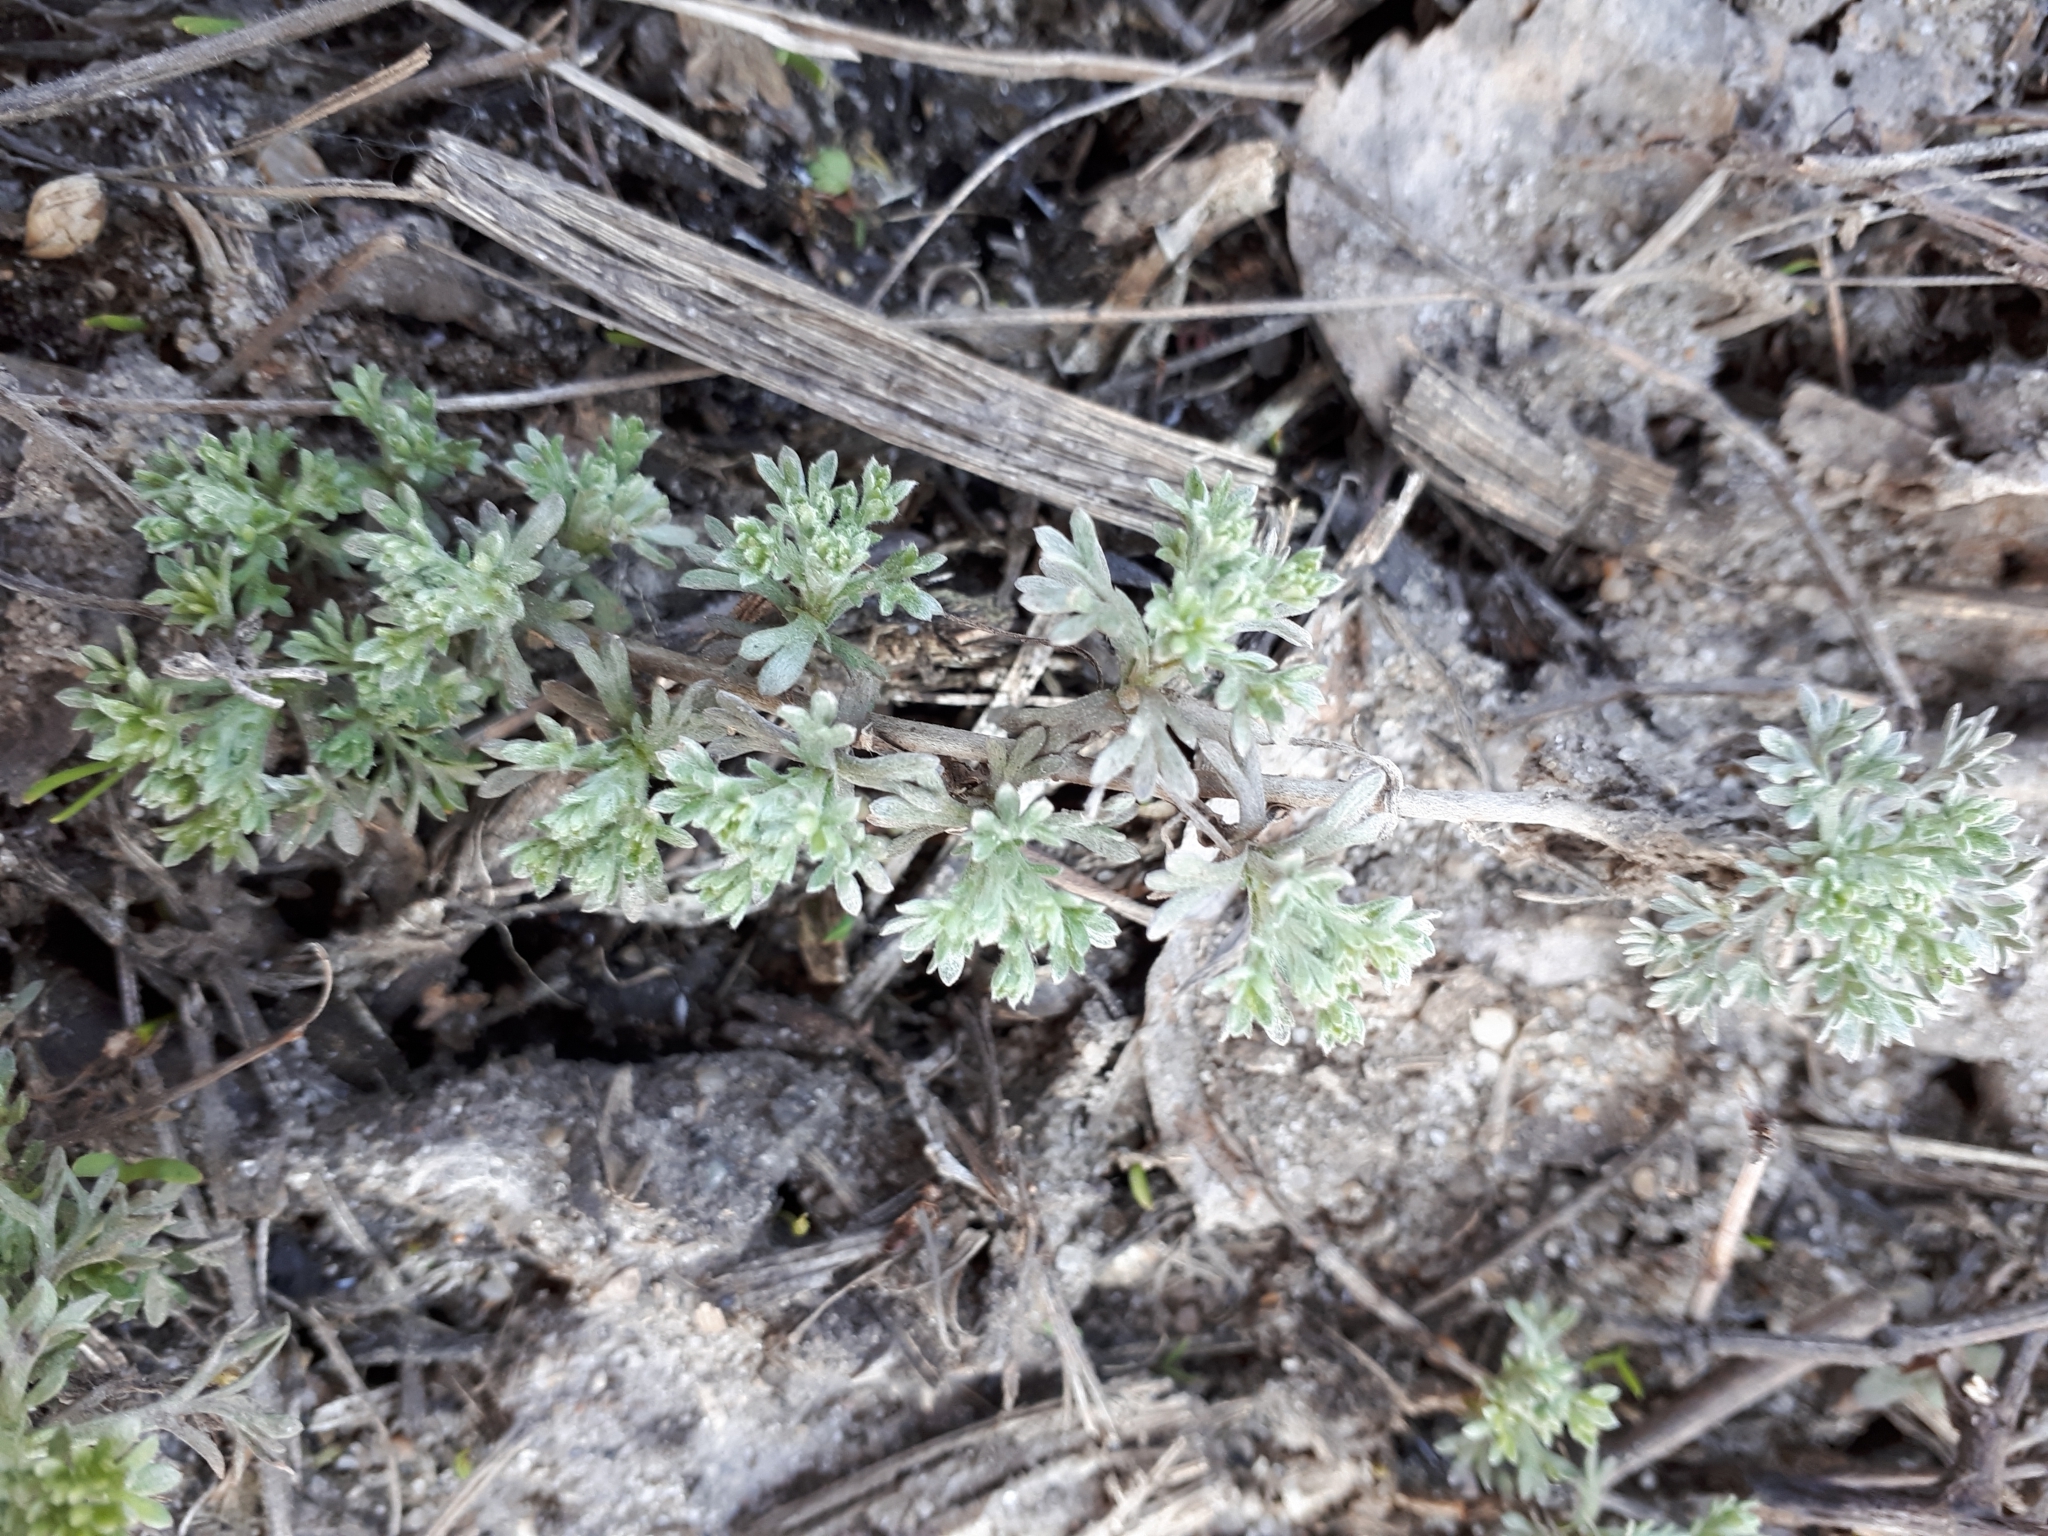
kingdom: Plantae
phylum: Tracheophyta
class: Magnoliopsida
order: Asterales
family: Asteraceae
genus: Artemisia
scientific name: Artemisia absinthium
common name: Wormwood
